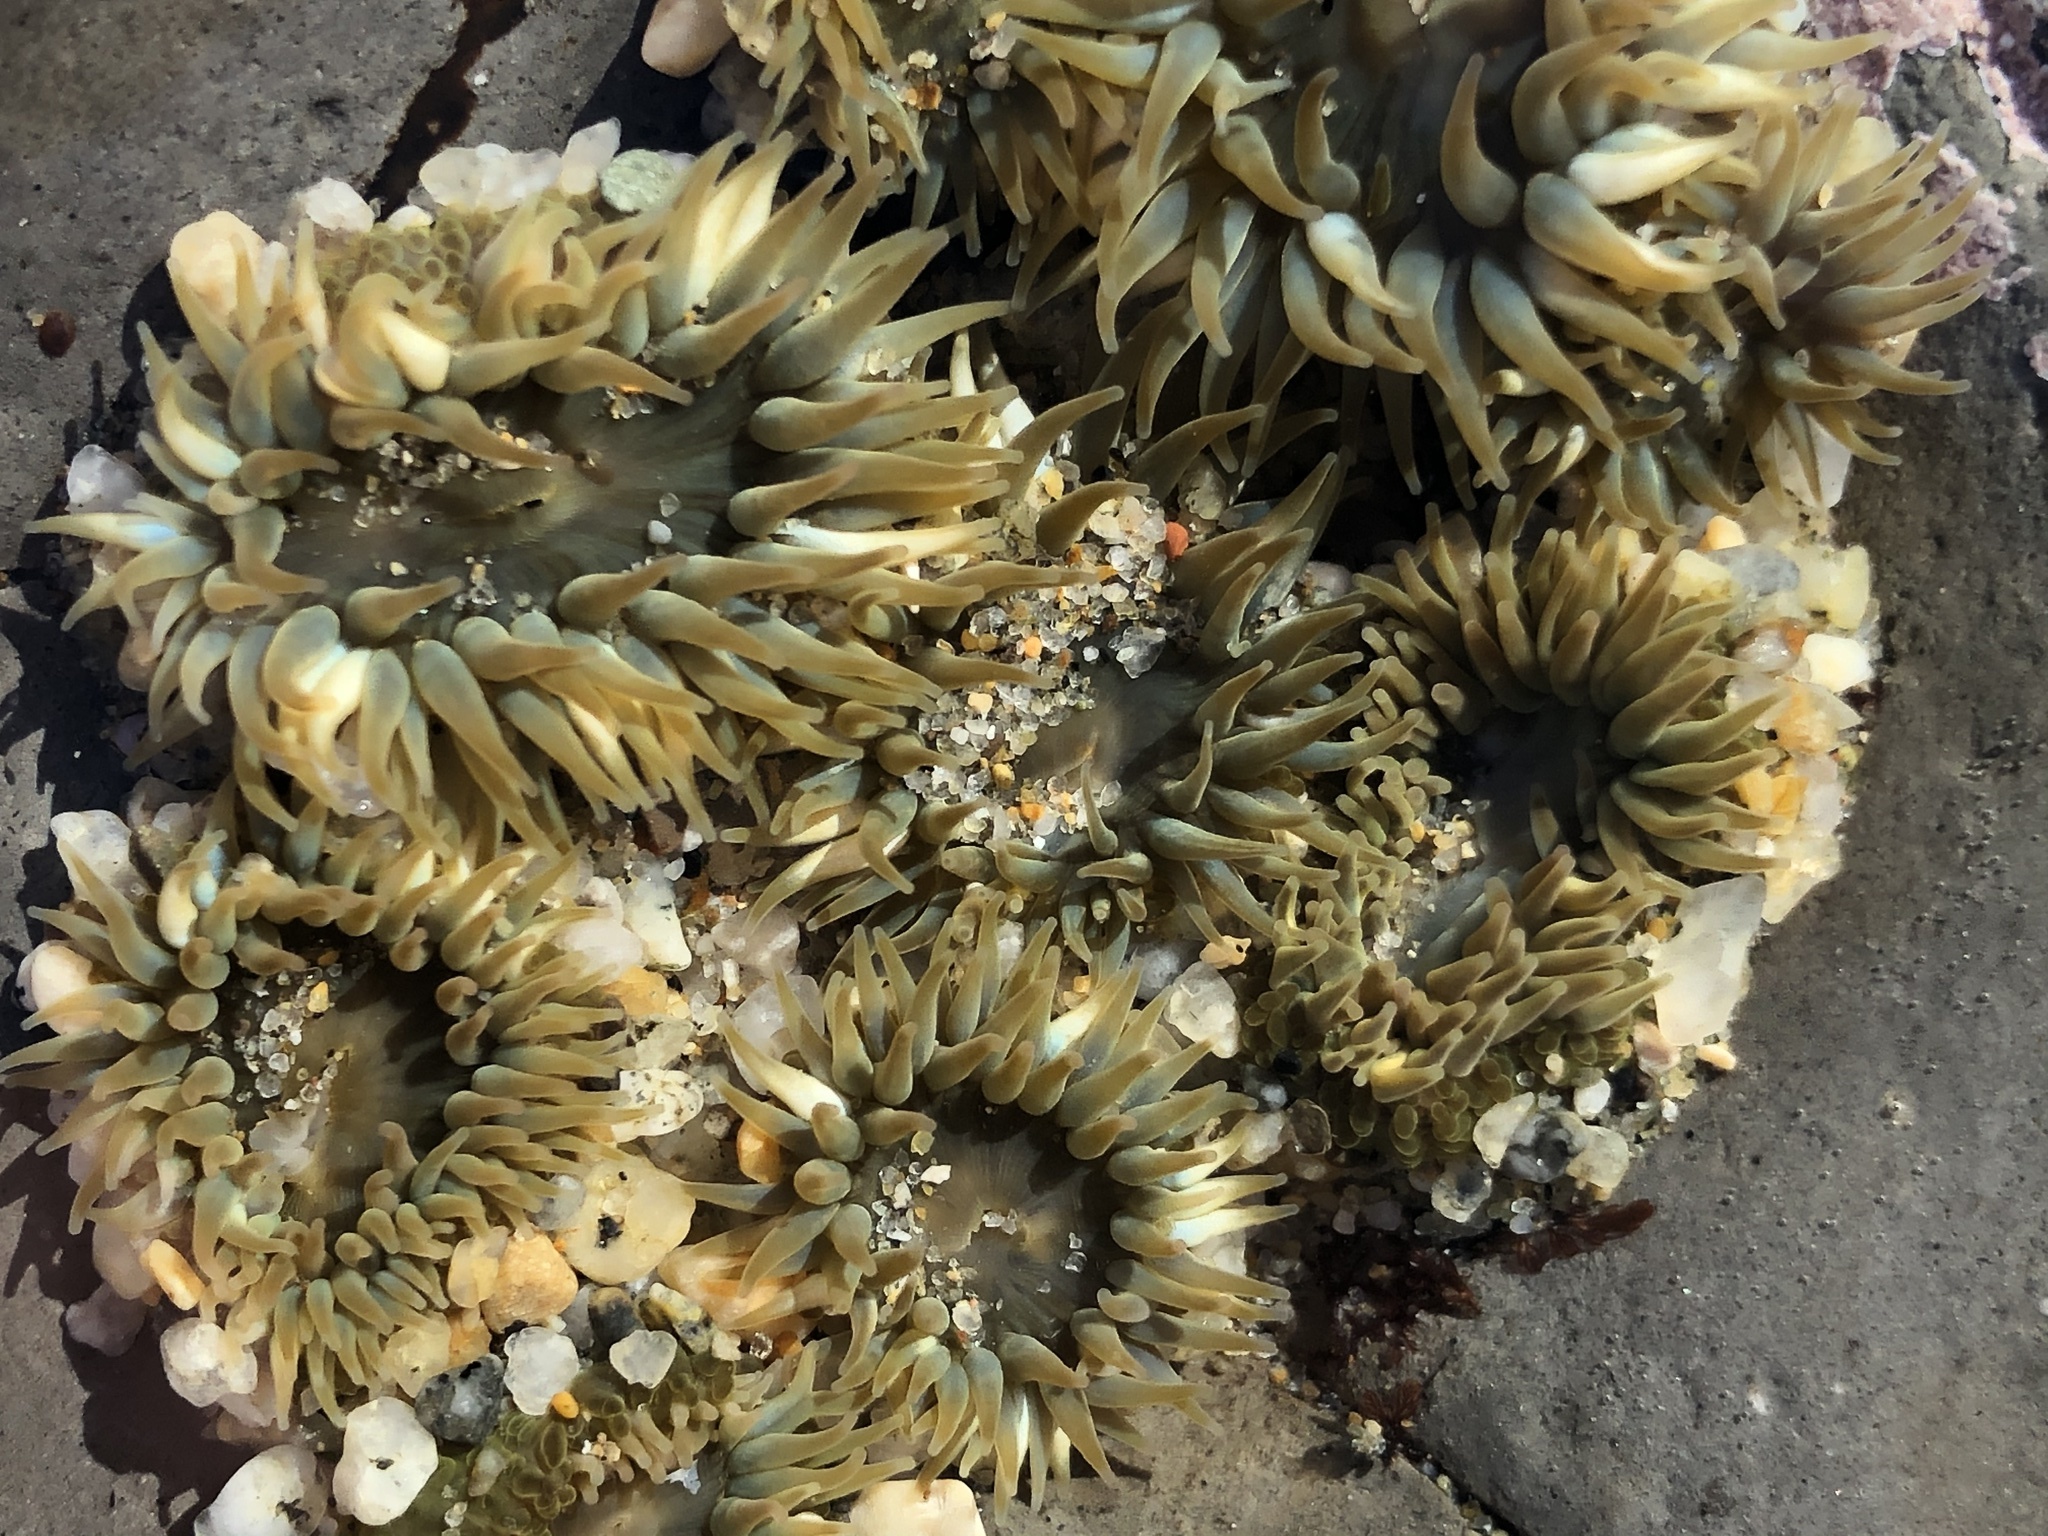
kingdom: Animalia
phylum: Cnidaria
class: Anthozoa
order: Actiniaria
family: Actiniidae
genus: Anthopleura
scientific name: Anthopleura elegantissima
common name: Clonal anemone
